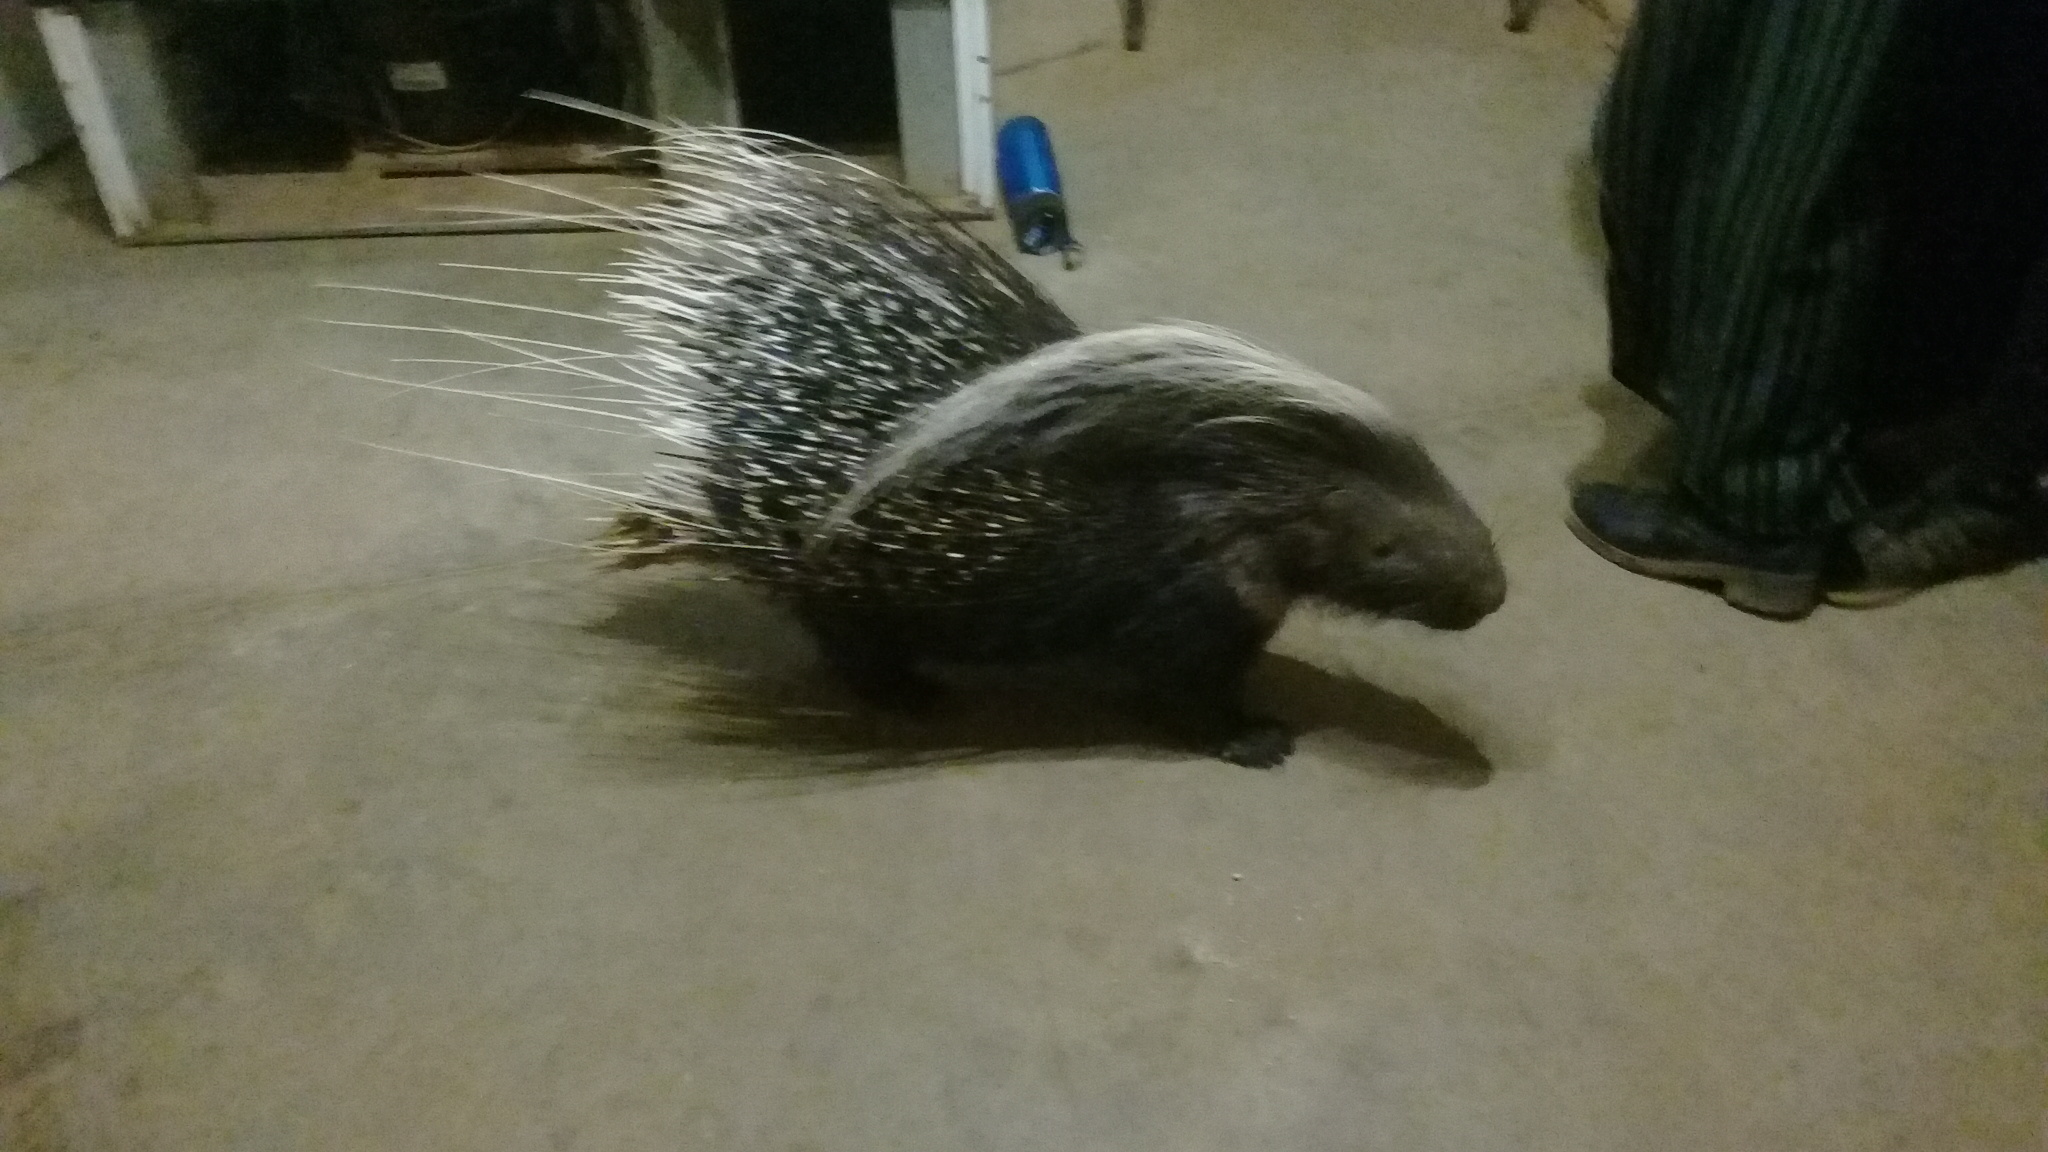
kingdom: Animalia
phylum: Chordata
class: Mammalia
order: Rodentia
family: Hystricidae
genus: Hystrix
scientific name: Hystrix africaeaustralis
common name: Cape porcupine
